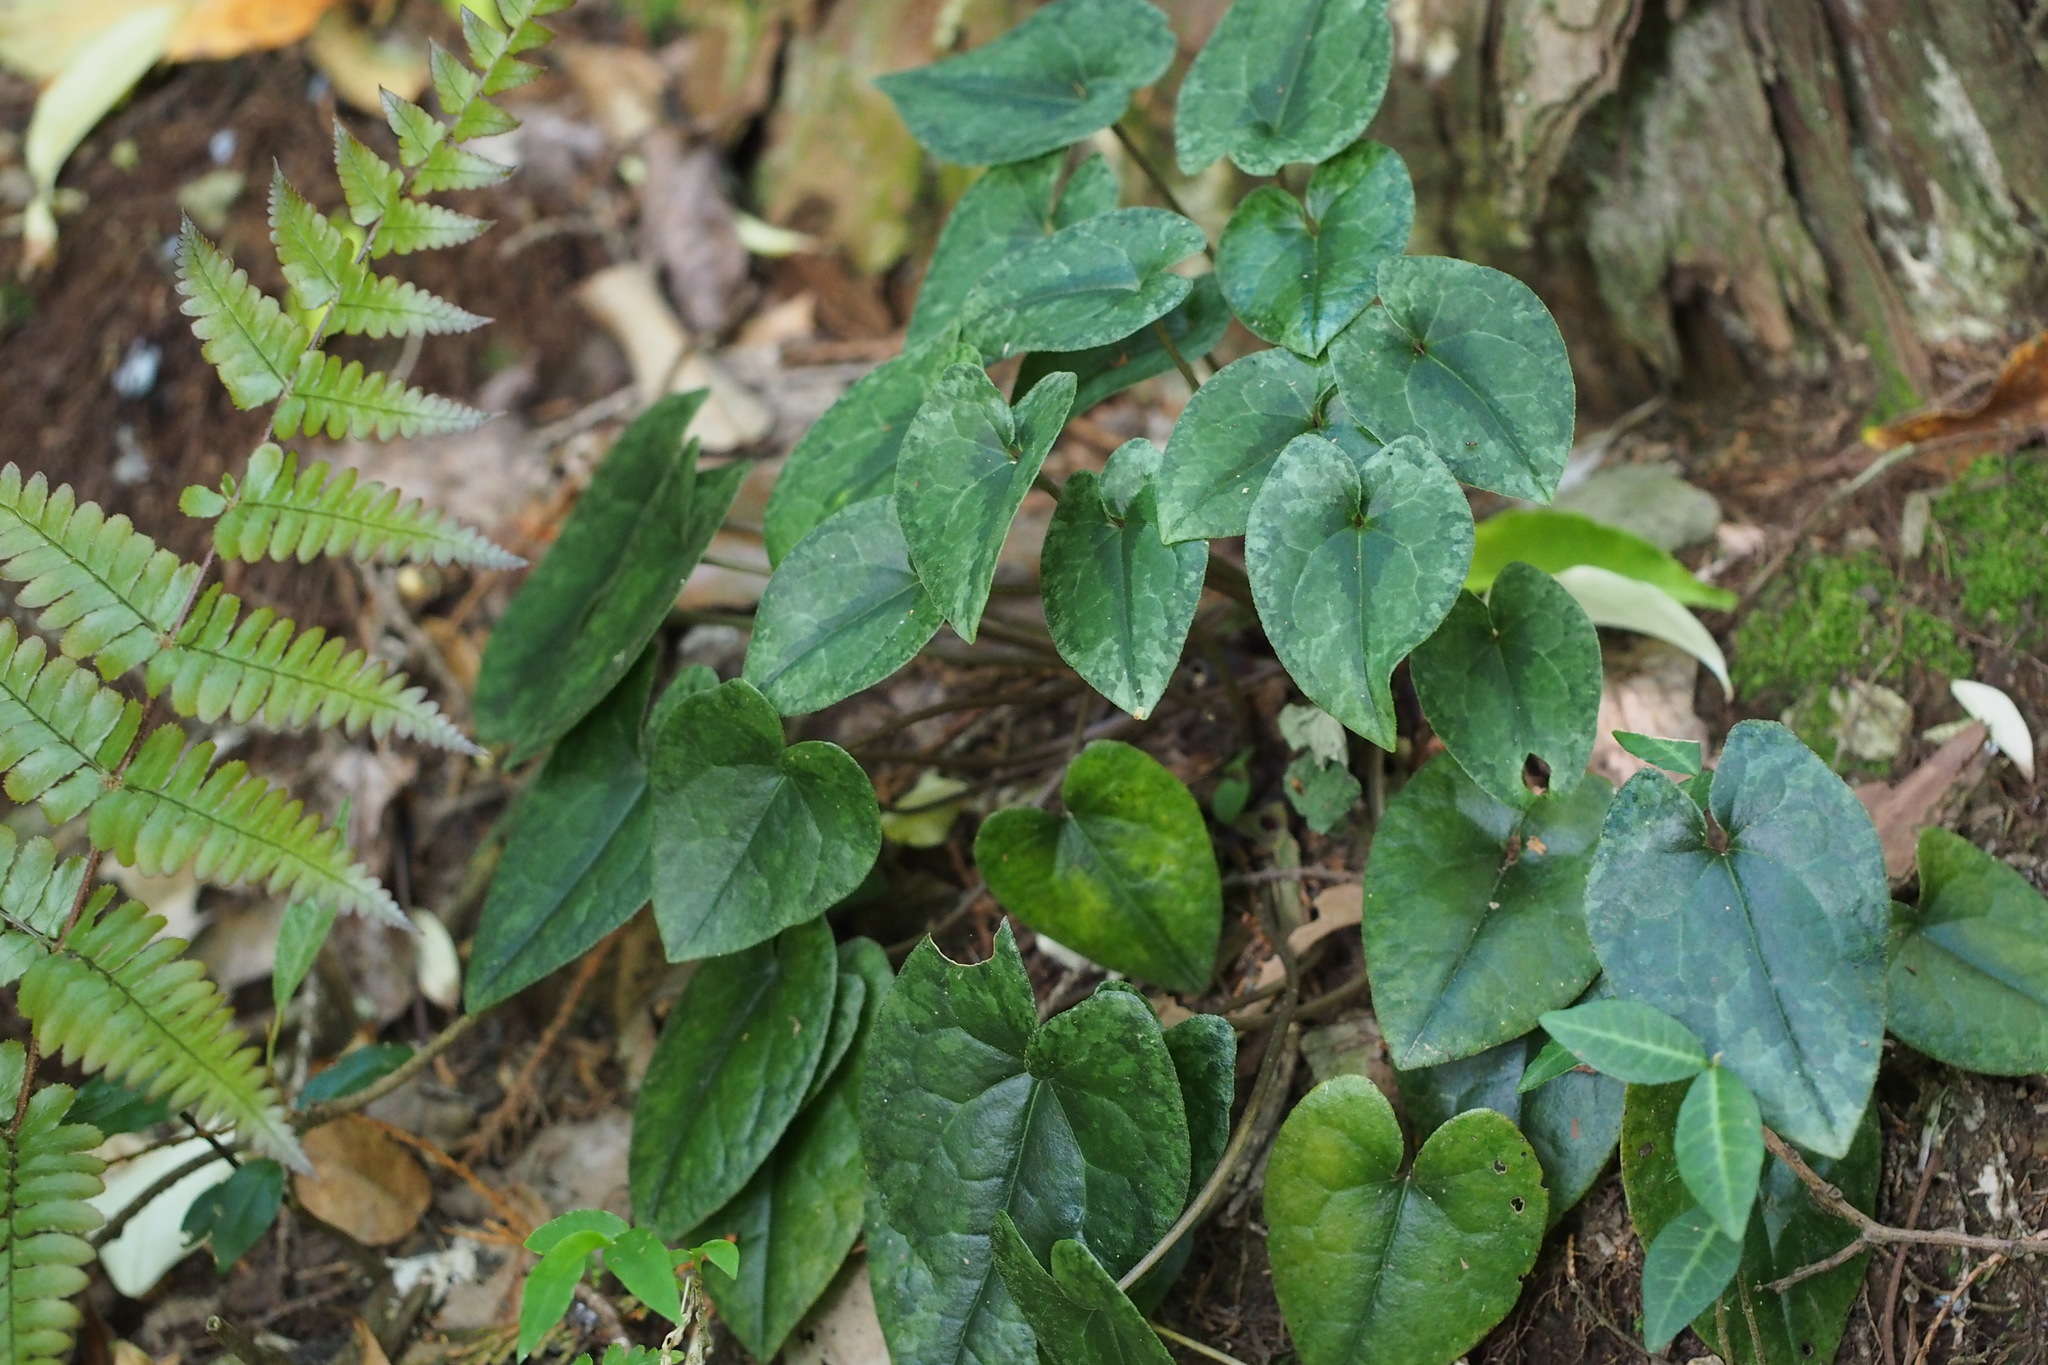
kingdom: Plantae
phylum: Tracheophyta
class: Magnoliopsida
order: Piperales
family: Aristolochiaceae
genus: Asarum
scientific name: Asarum nipponicum
